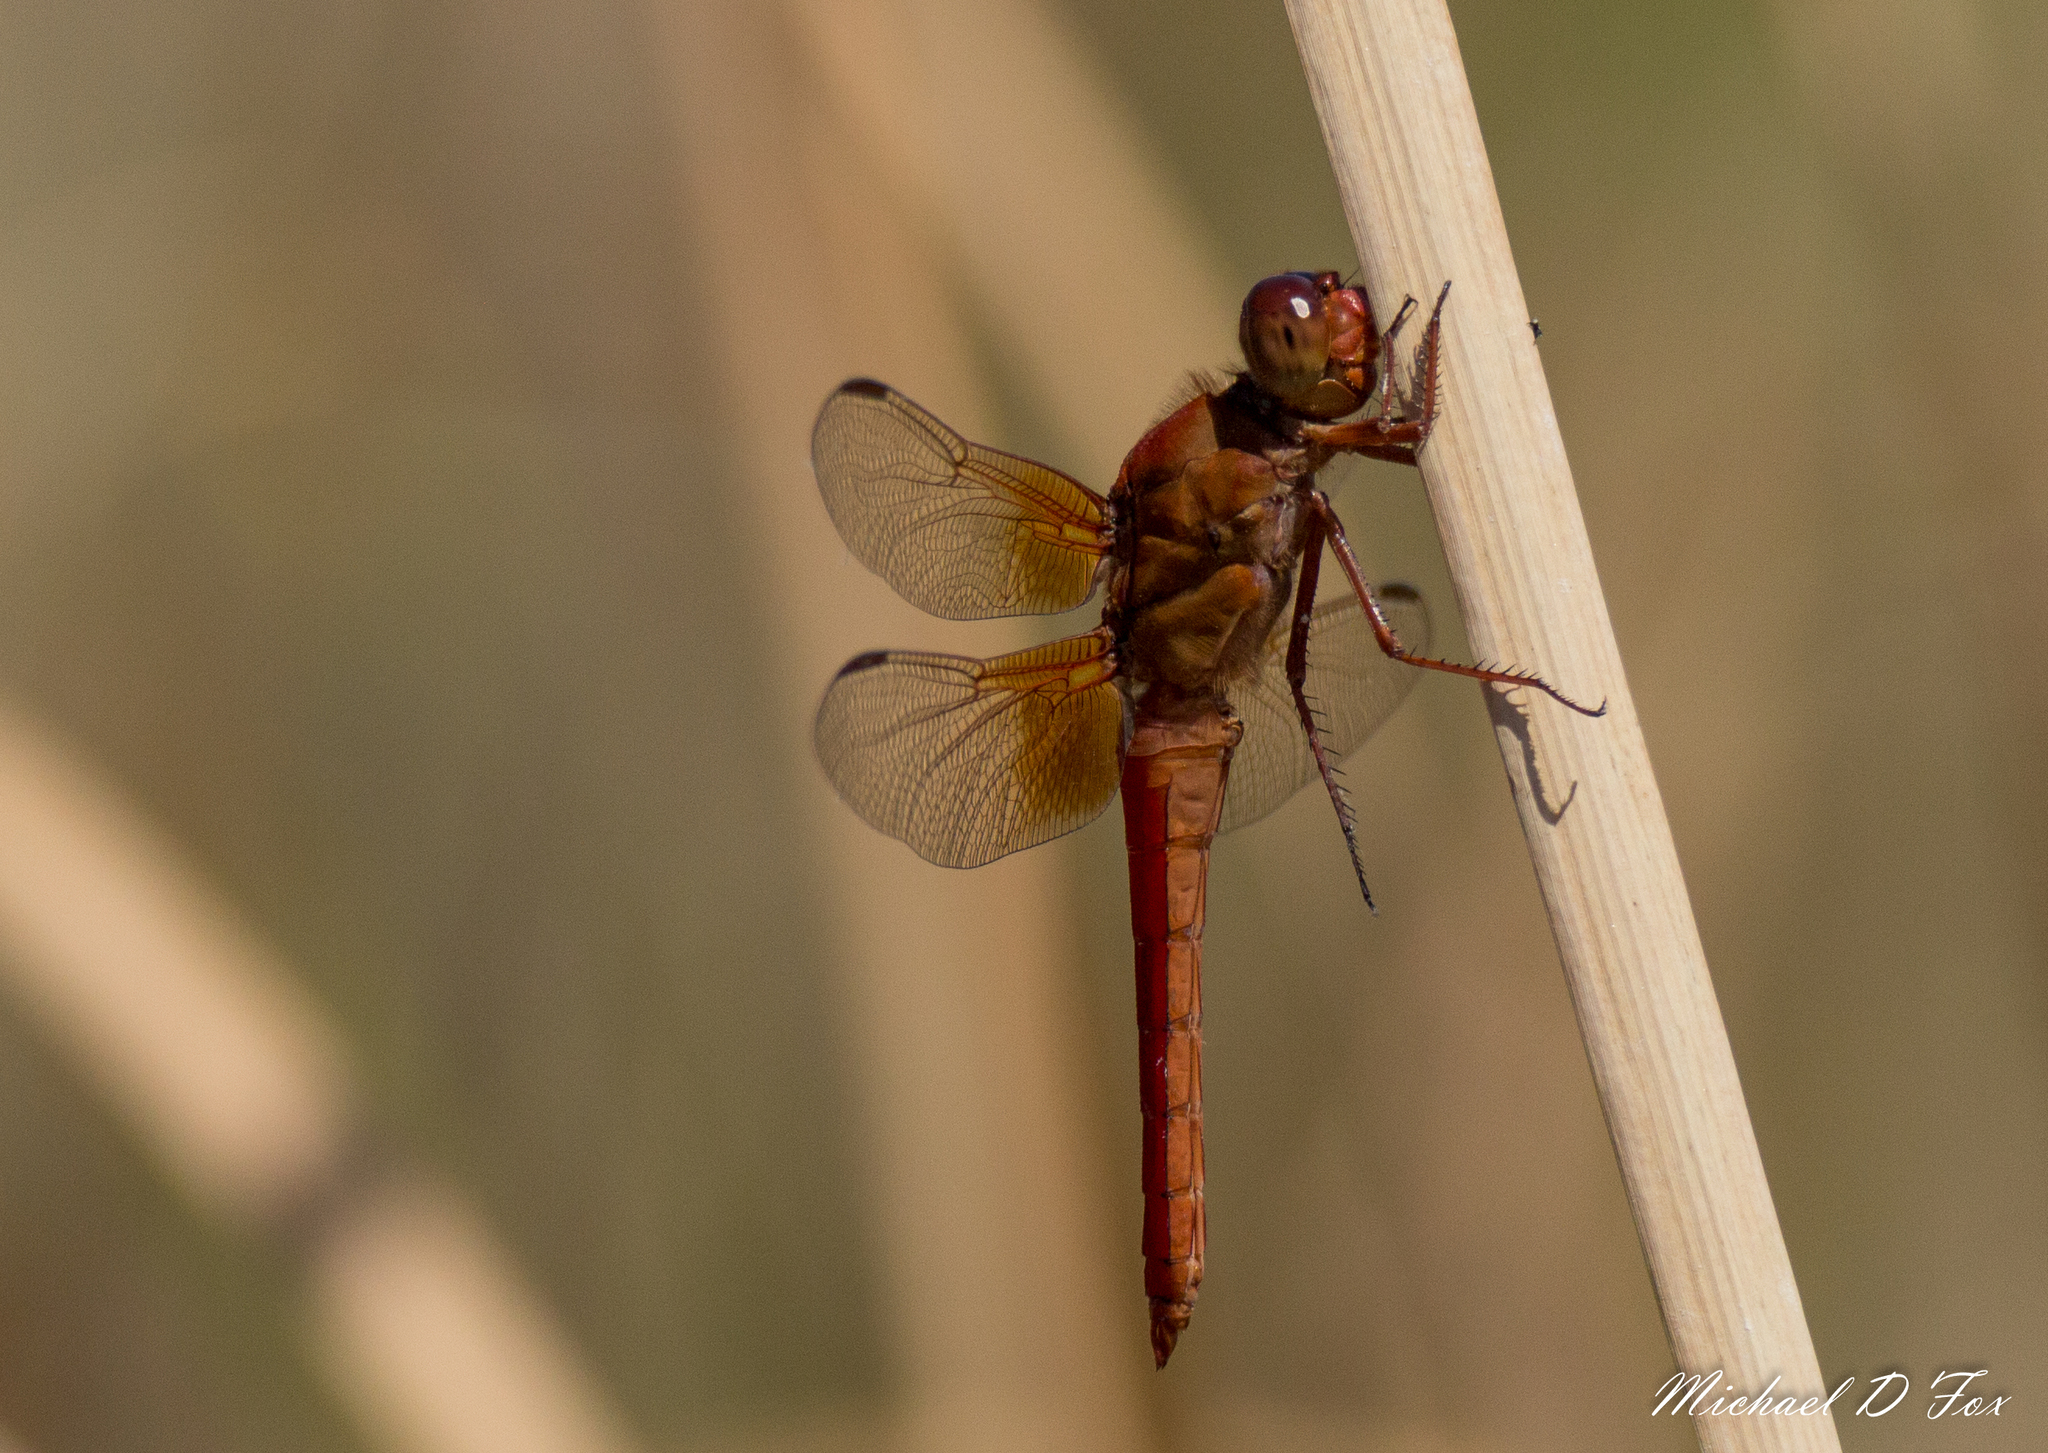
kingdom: Animalia
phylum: Arthropoda
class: Insecta
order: Odonata
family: Libellulidae
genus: Libellula
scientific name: Libellula croceipennis
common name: Neon skimmer
